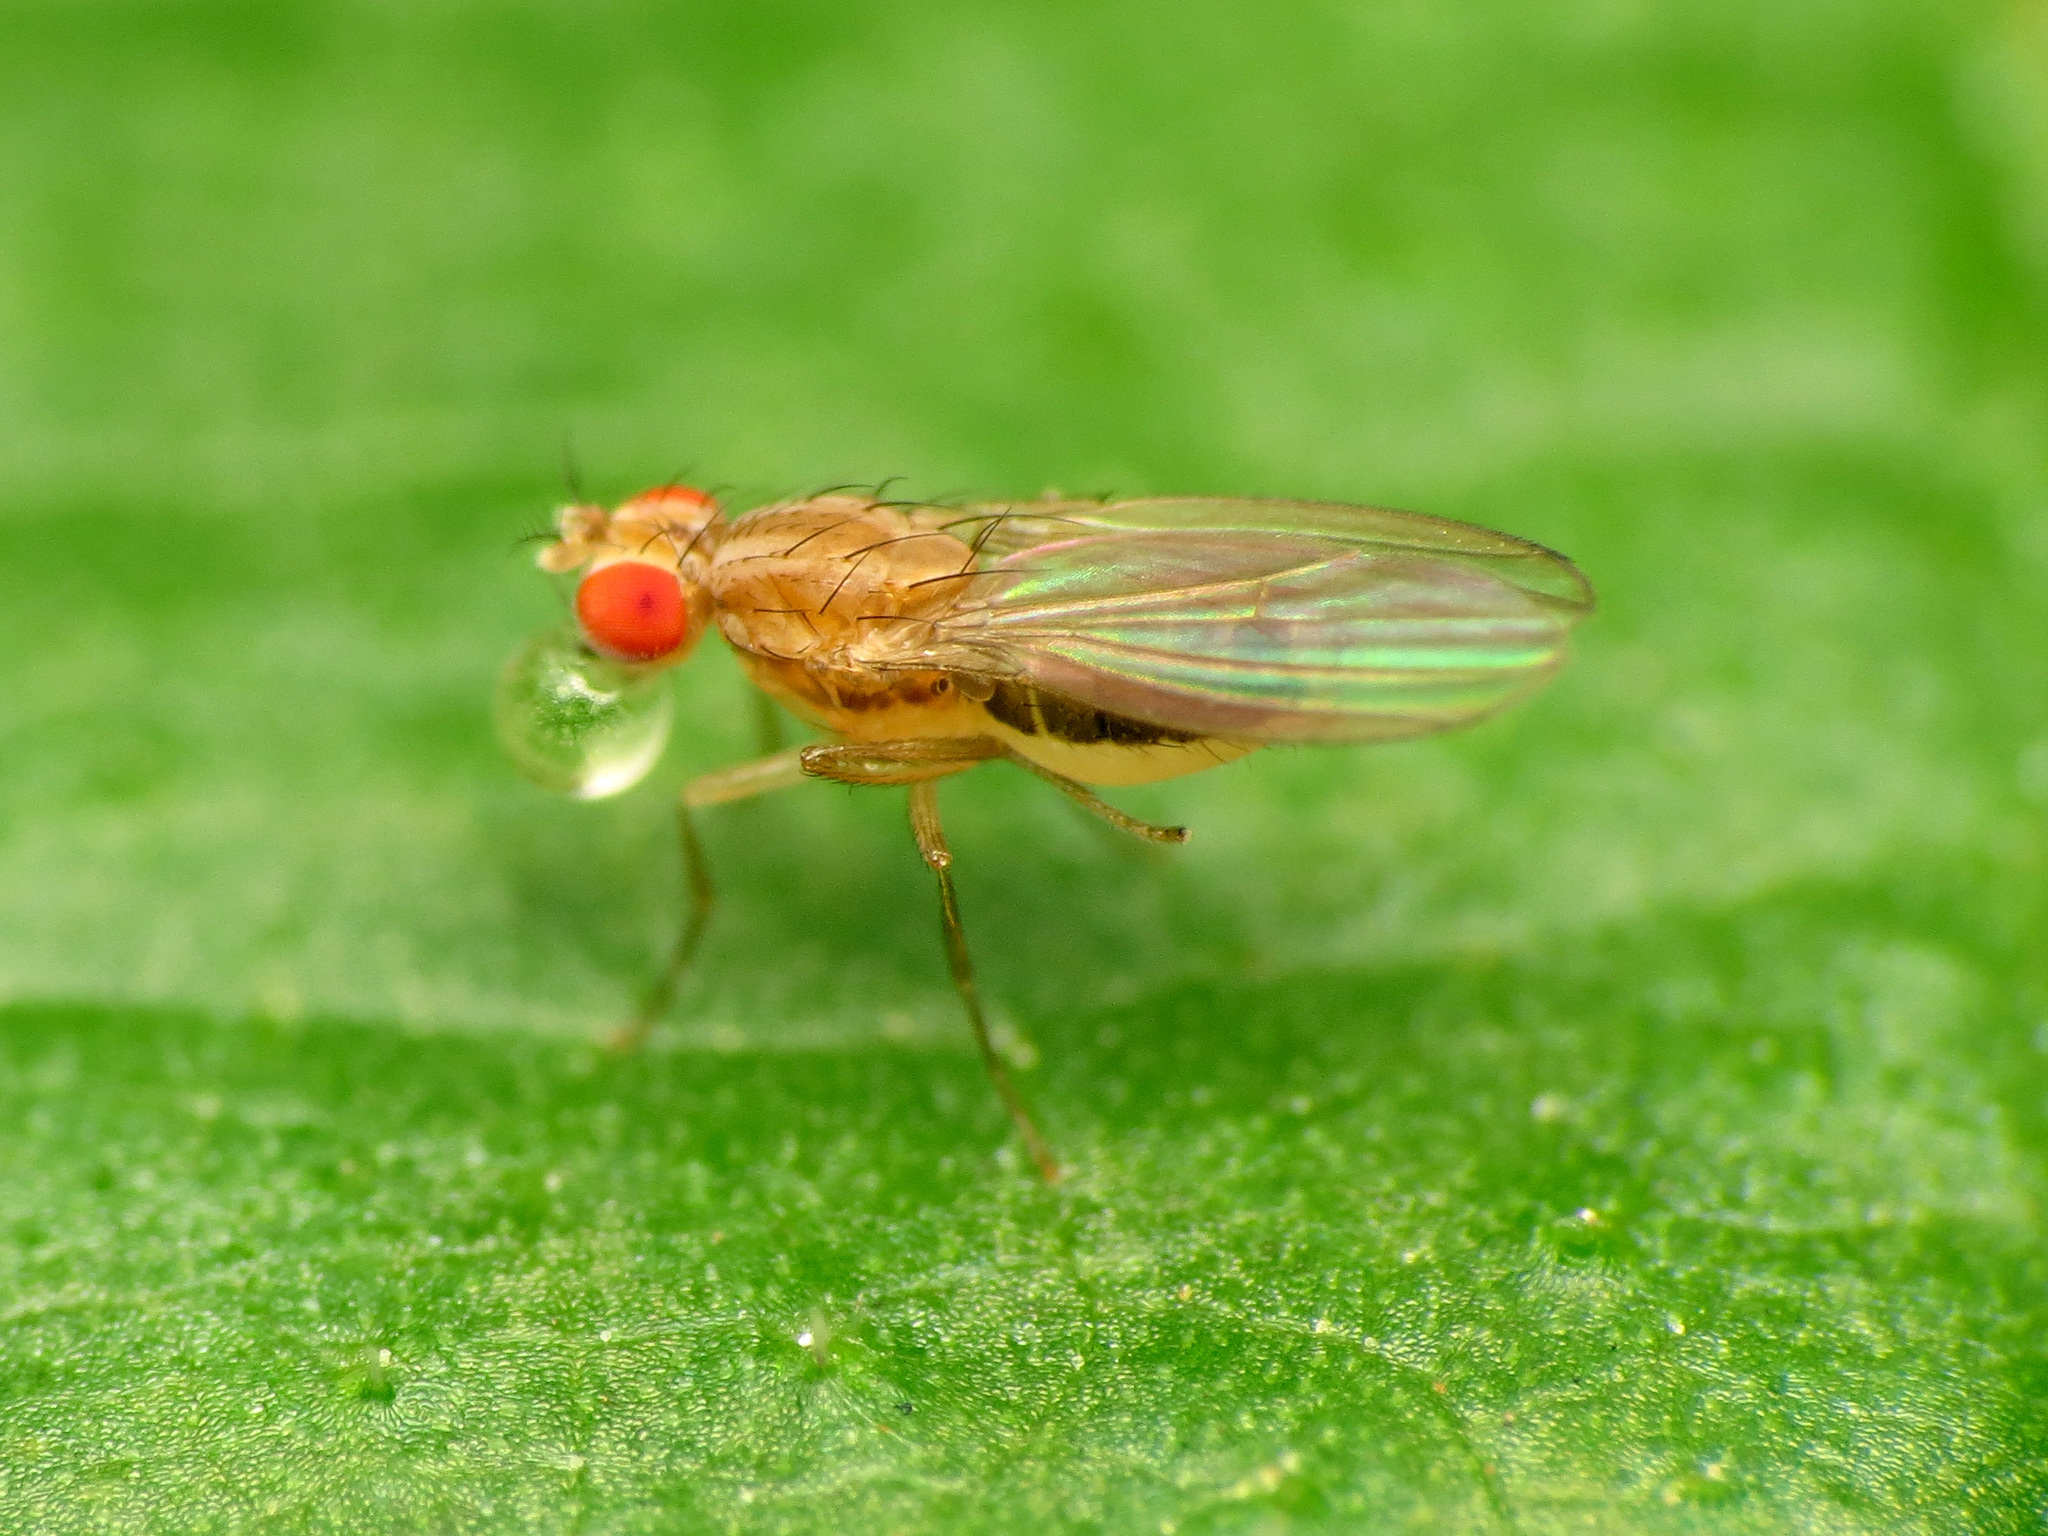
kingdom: Animalia
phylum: Arthropoda
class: Insecta
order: Diptera
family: Drosophilidae
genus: Scaptomyza
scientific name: Scaptomyza wheeleri
